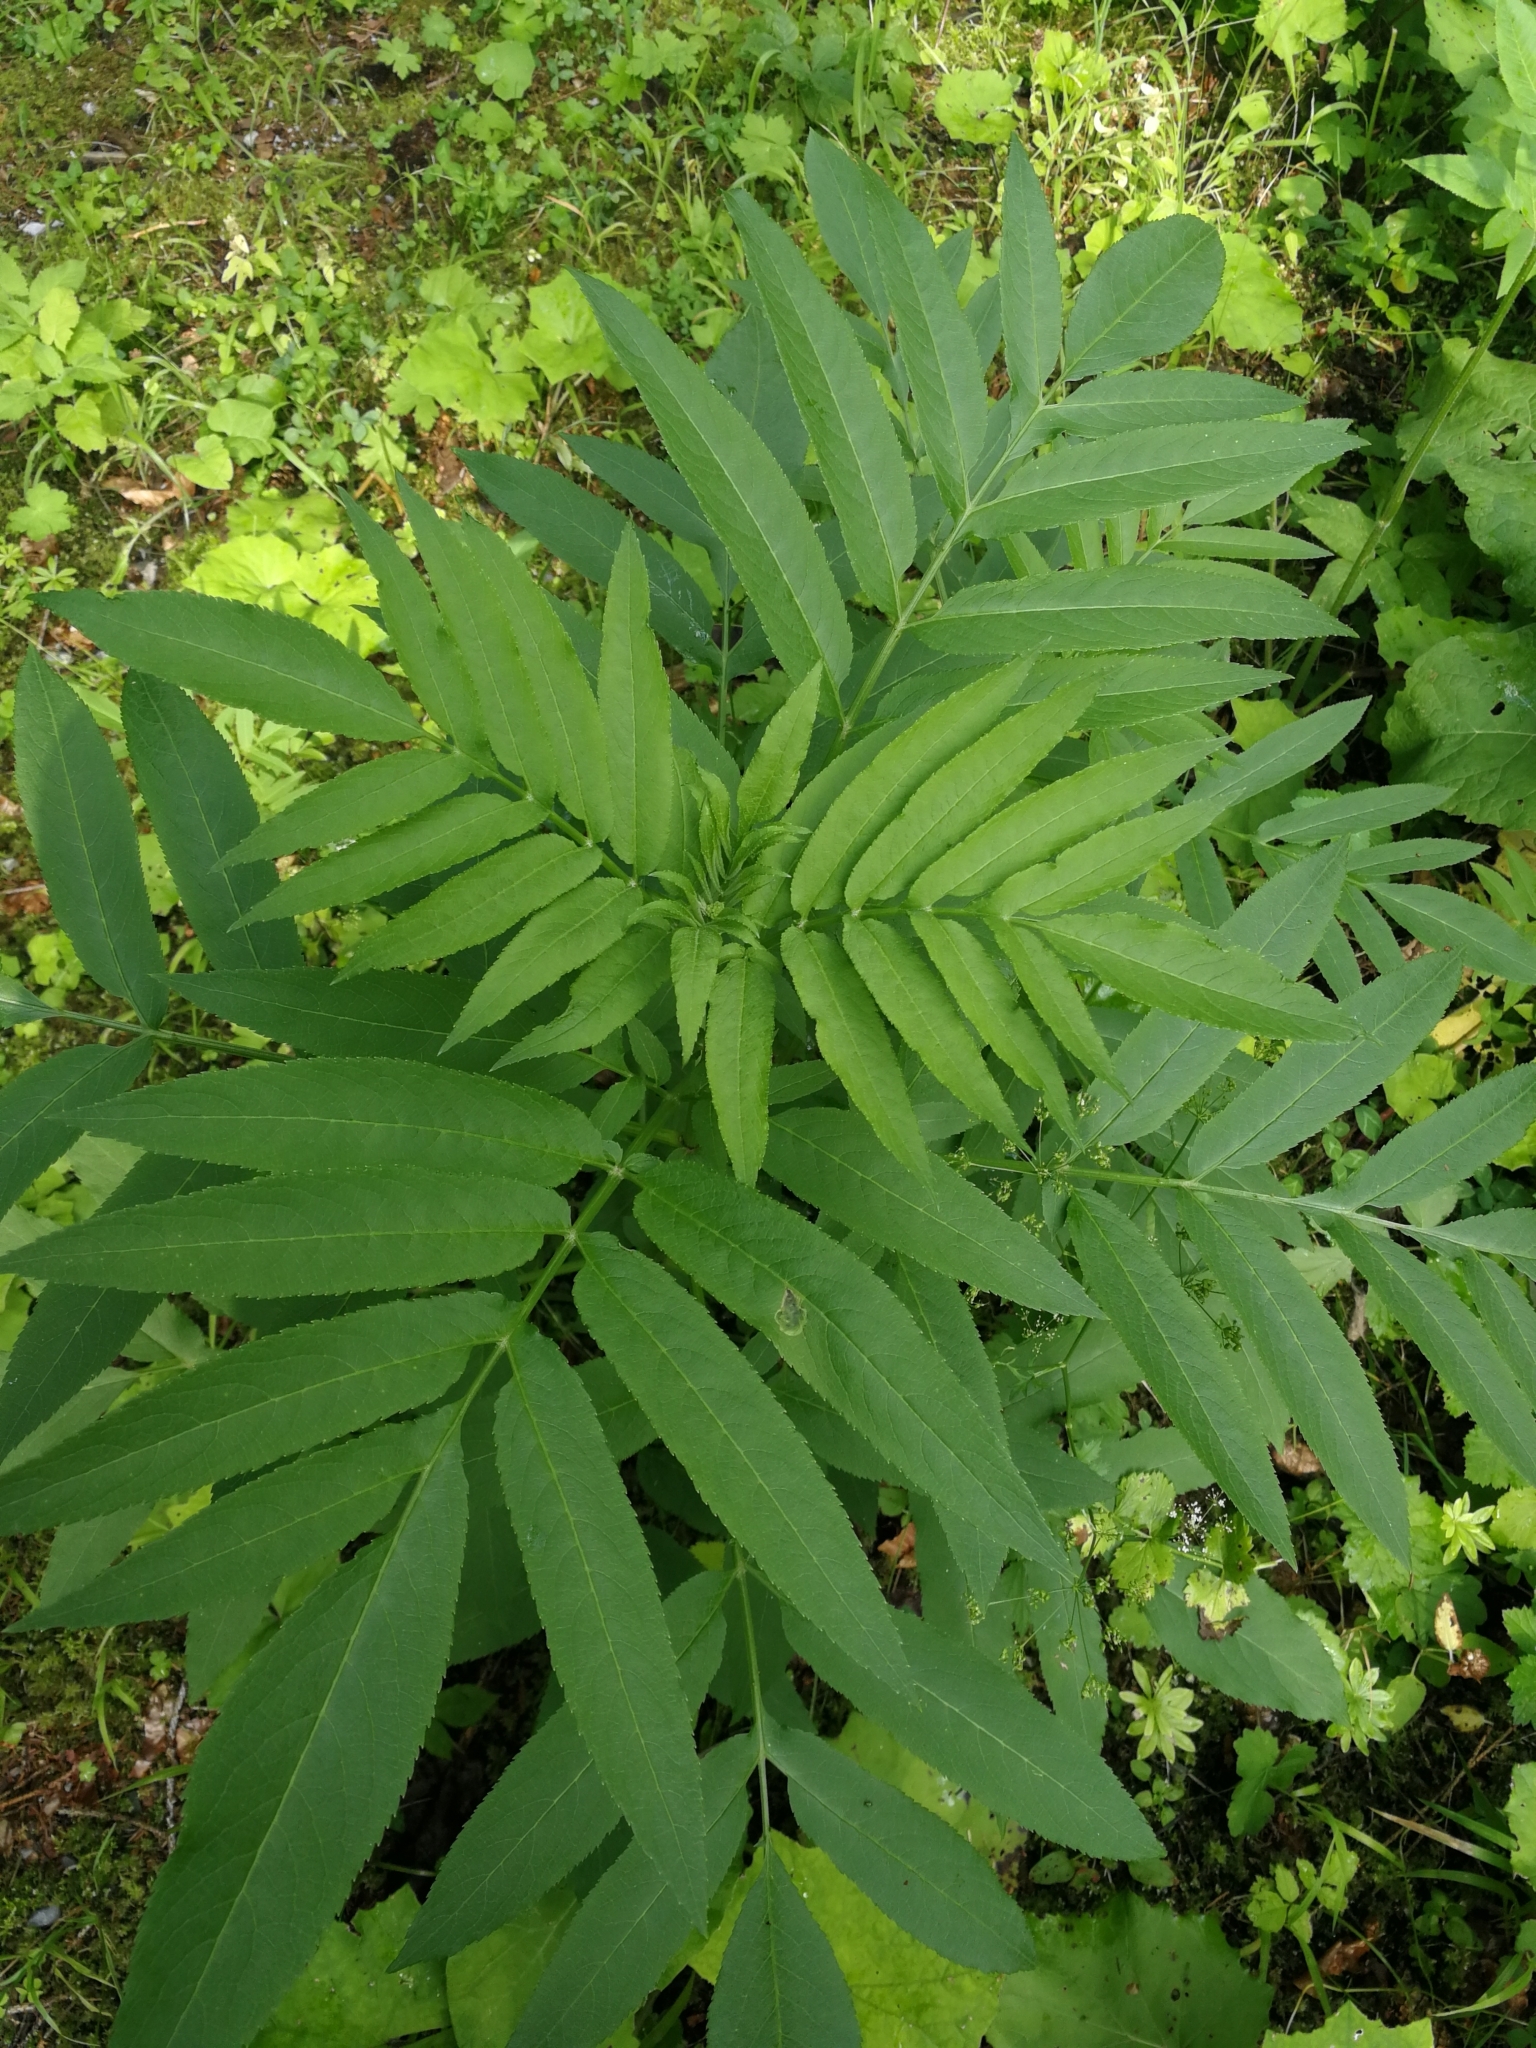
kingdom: Plantae
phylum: Tracheophyta
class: Magnoliopsida
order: Dipsacales
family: Viburnaceae
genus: Sambucus
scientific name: Sambucus ebulus
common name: Dwarf elder
